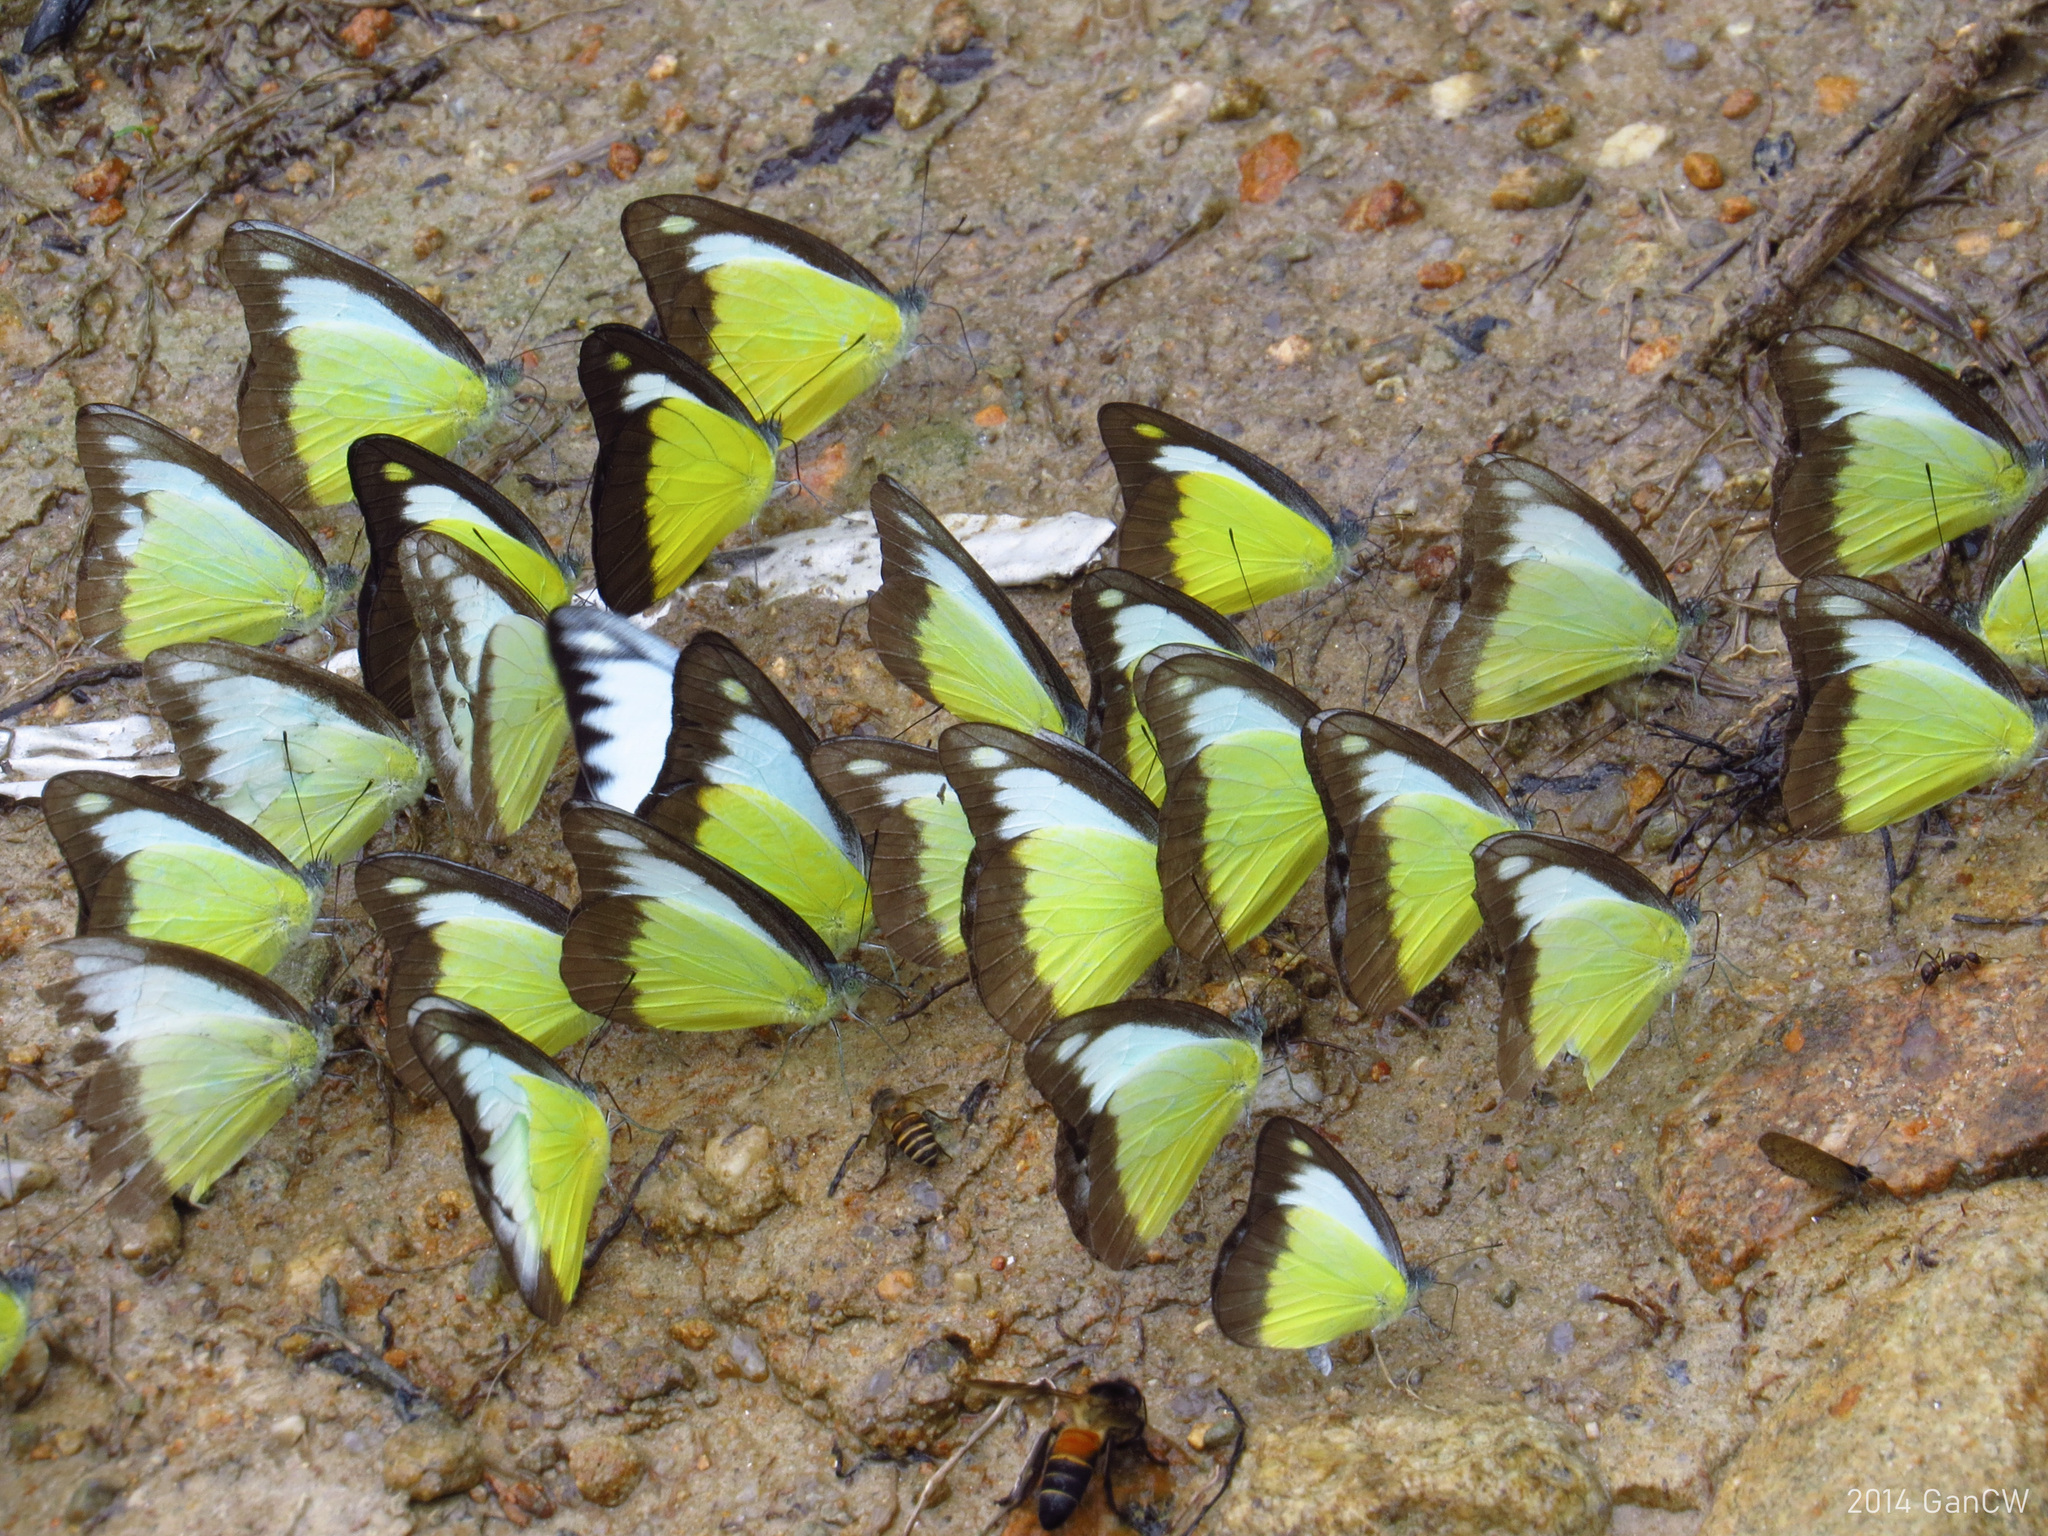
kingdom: Animalia
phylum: Arthropoda
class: Insecta
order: Lepidoptera
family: Pieridae
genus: Appias
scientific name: Appias lyncida
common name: Chocolate albatross
